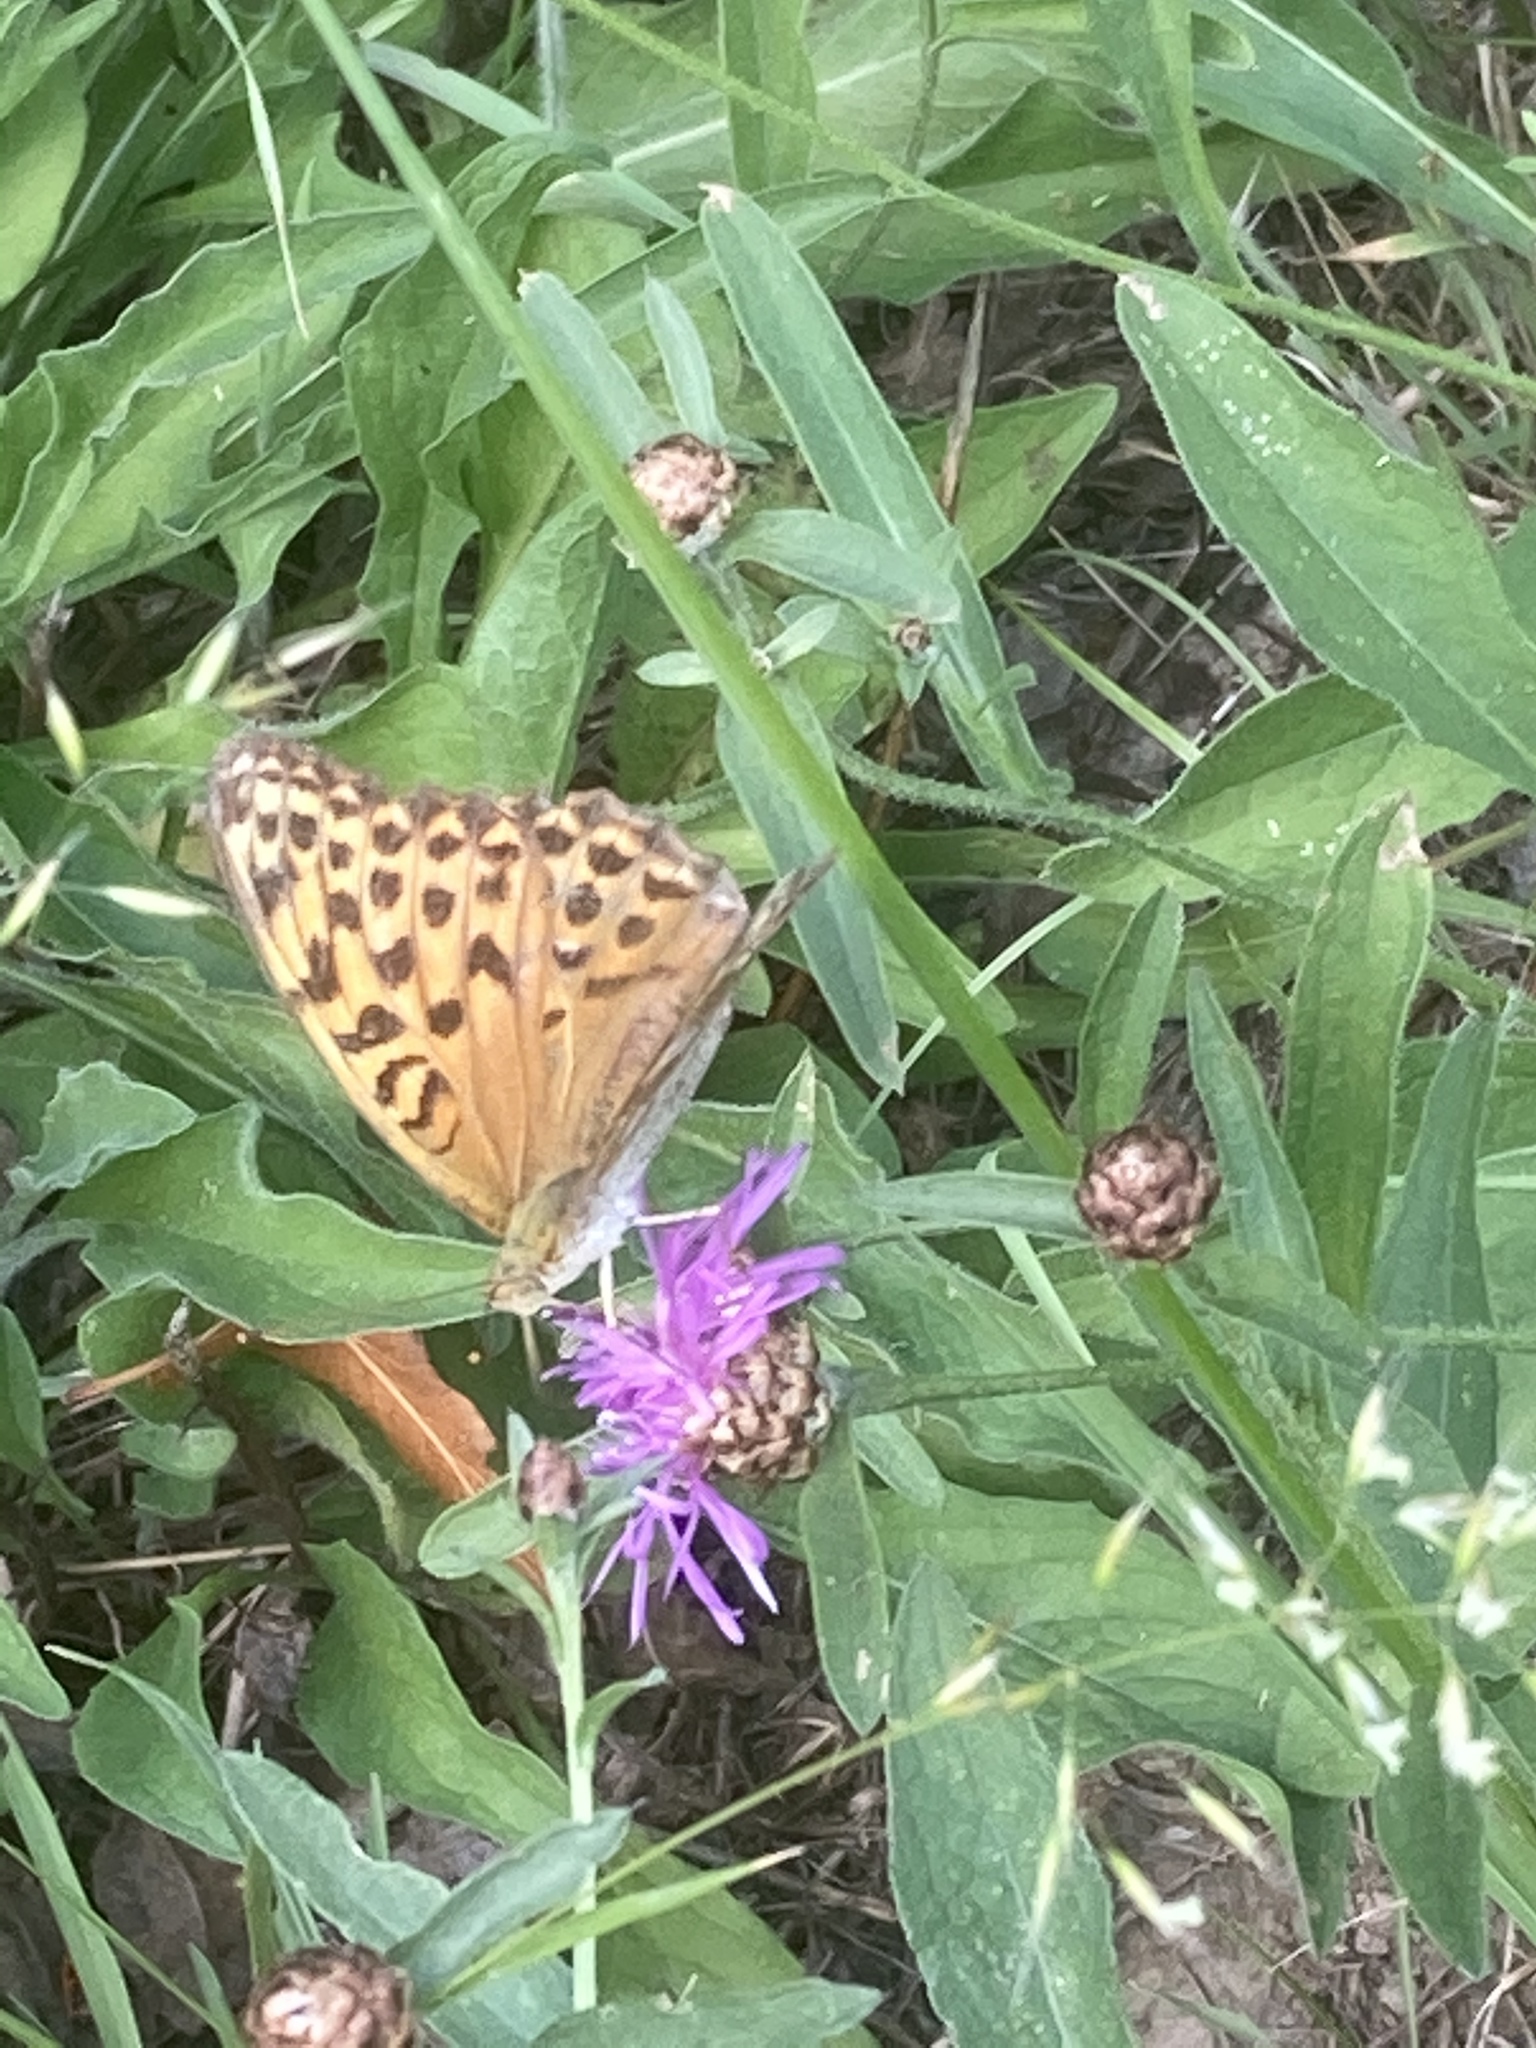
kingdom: Animalia
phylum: Arthropoda
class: Insecta
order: Lepidoptera
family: Nymphalidae
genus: Argynnis
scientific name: Argynnis paphia
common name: Silver-washed fritillary
